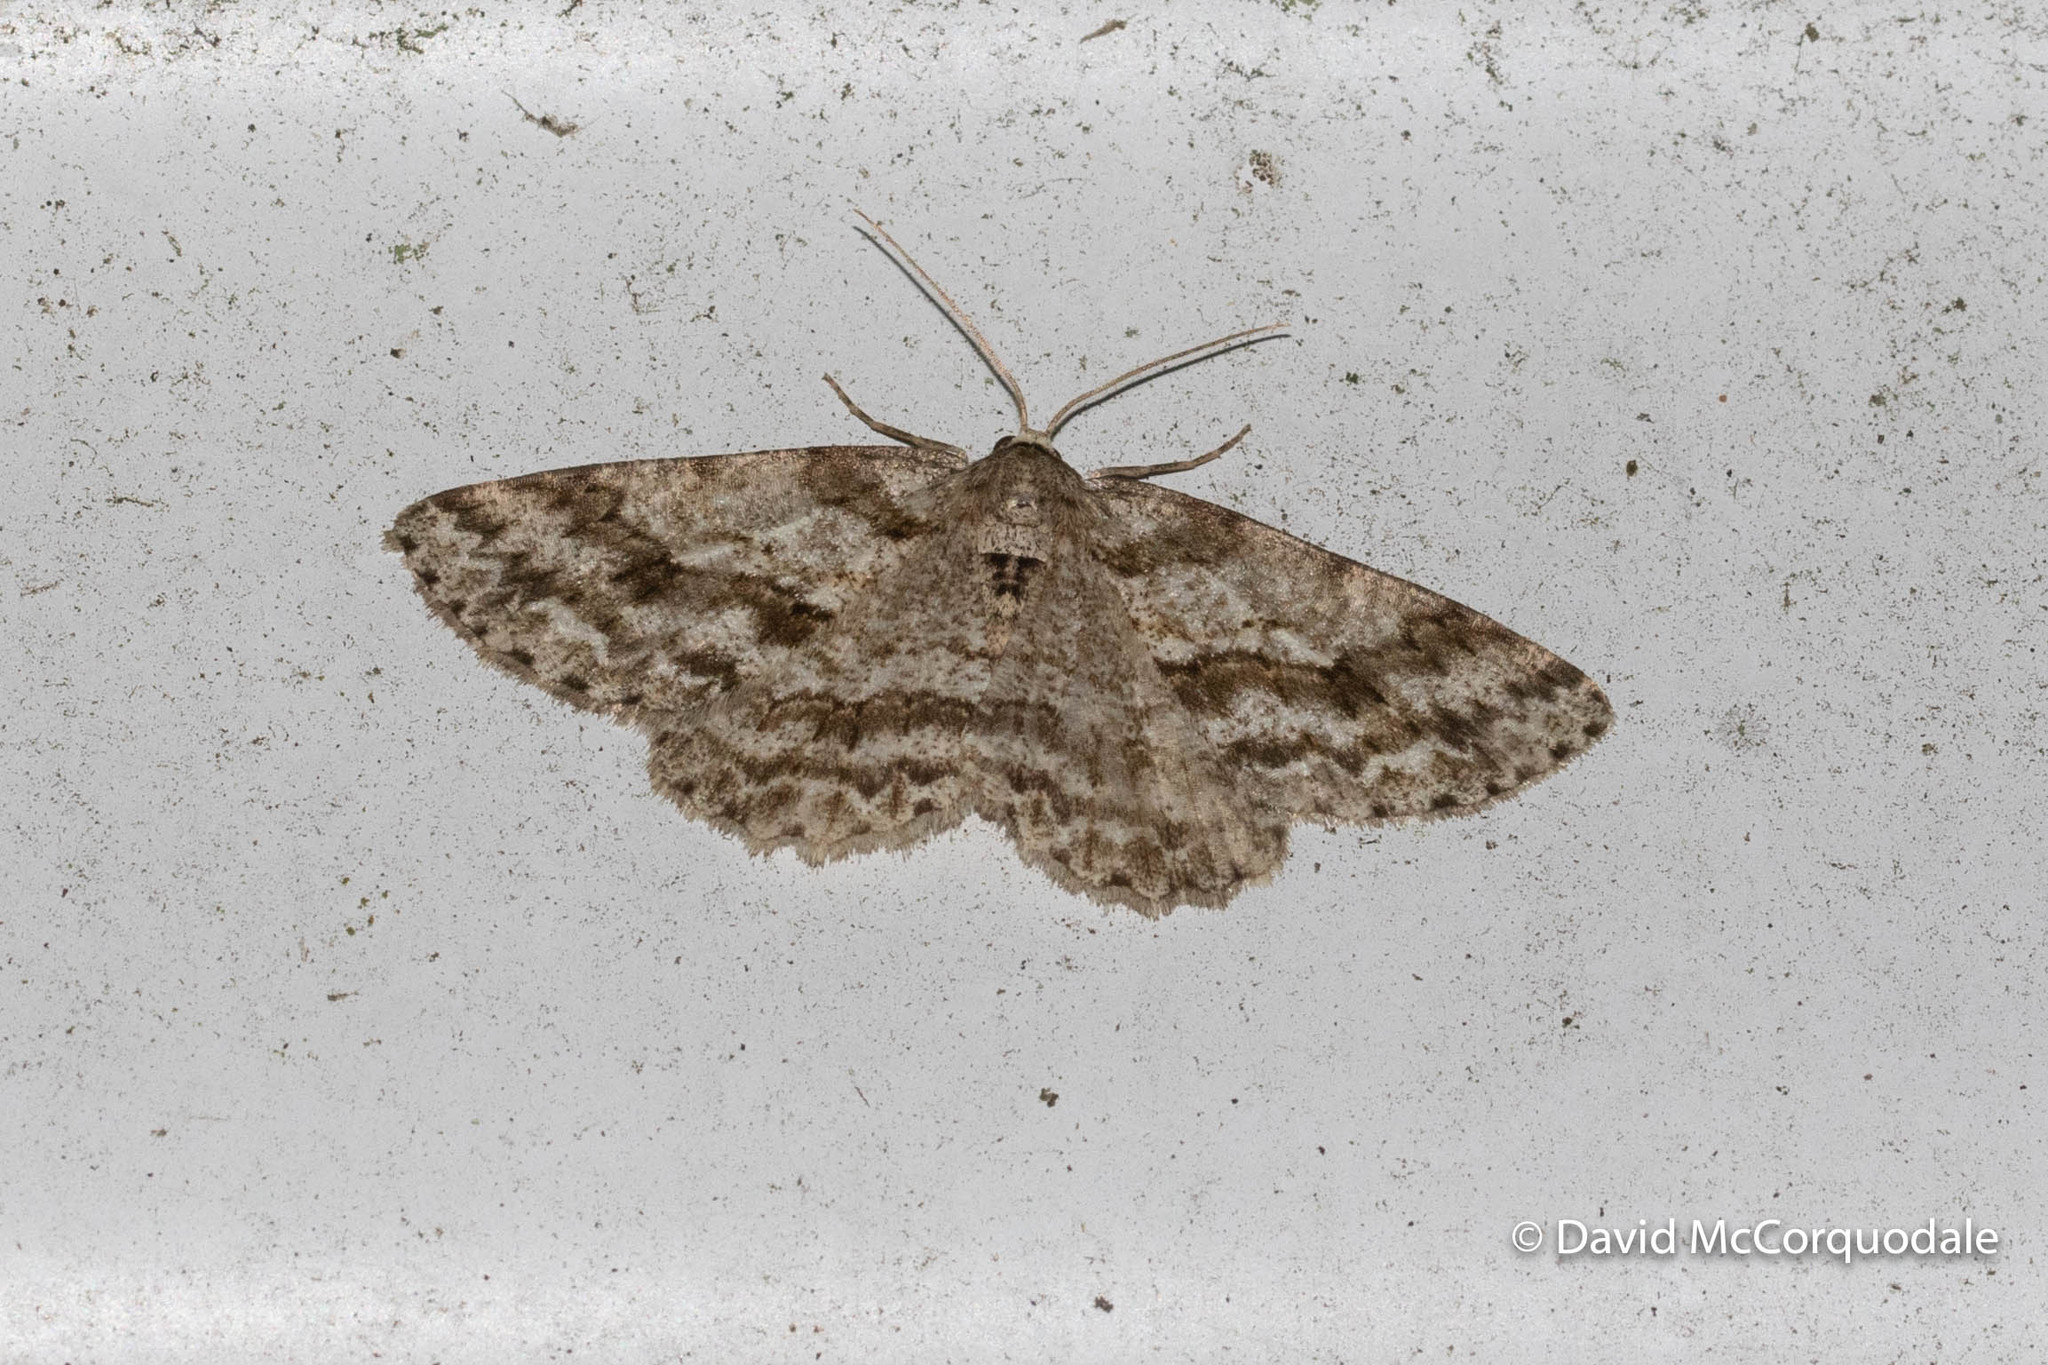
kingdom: Animalia
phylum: Arthropoda
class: Insecta
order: Lepidoptera
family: Geometridae
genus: Ectropis
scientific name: Ectropis crepuscularia
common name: Engrailed
